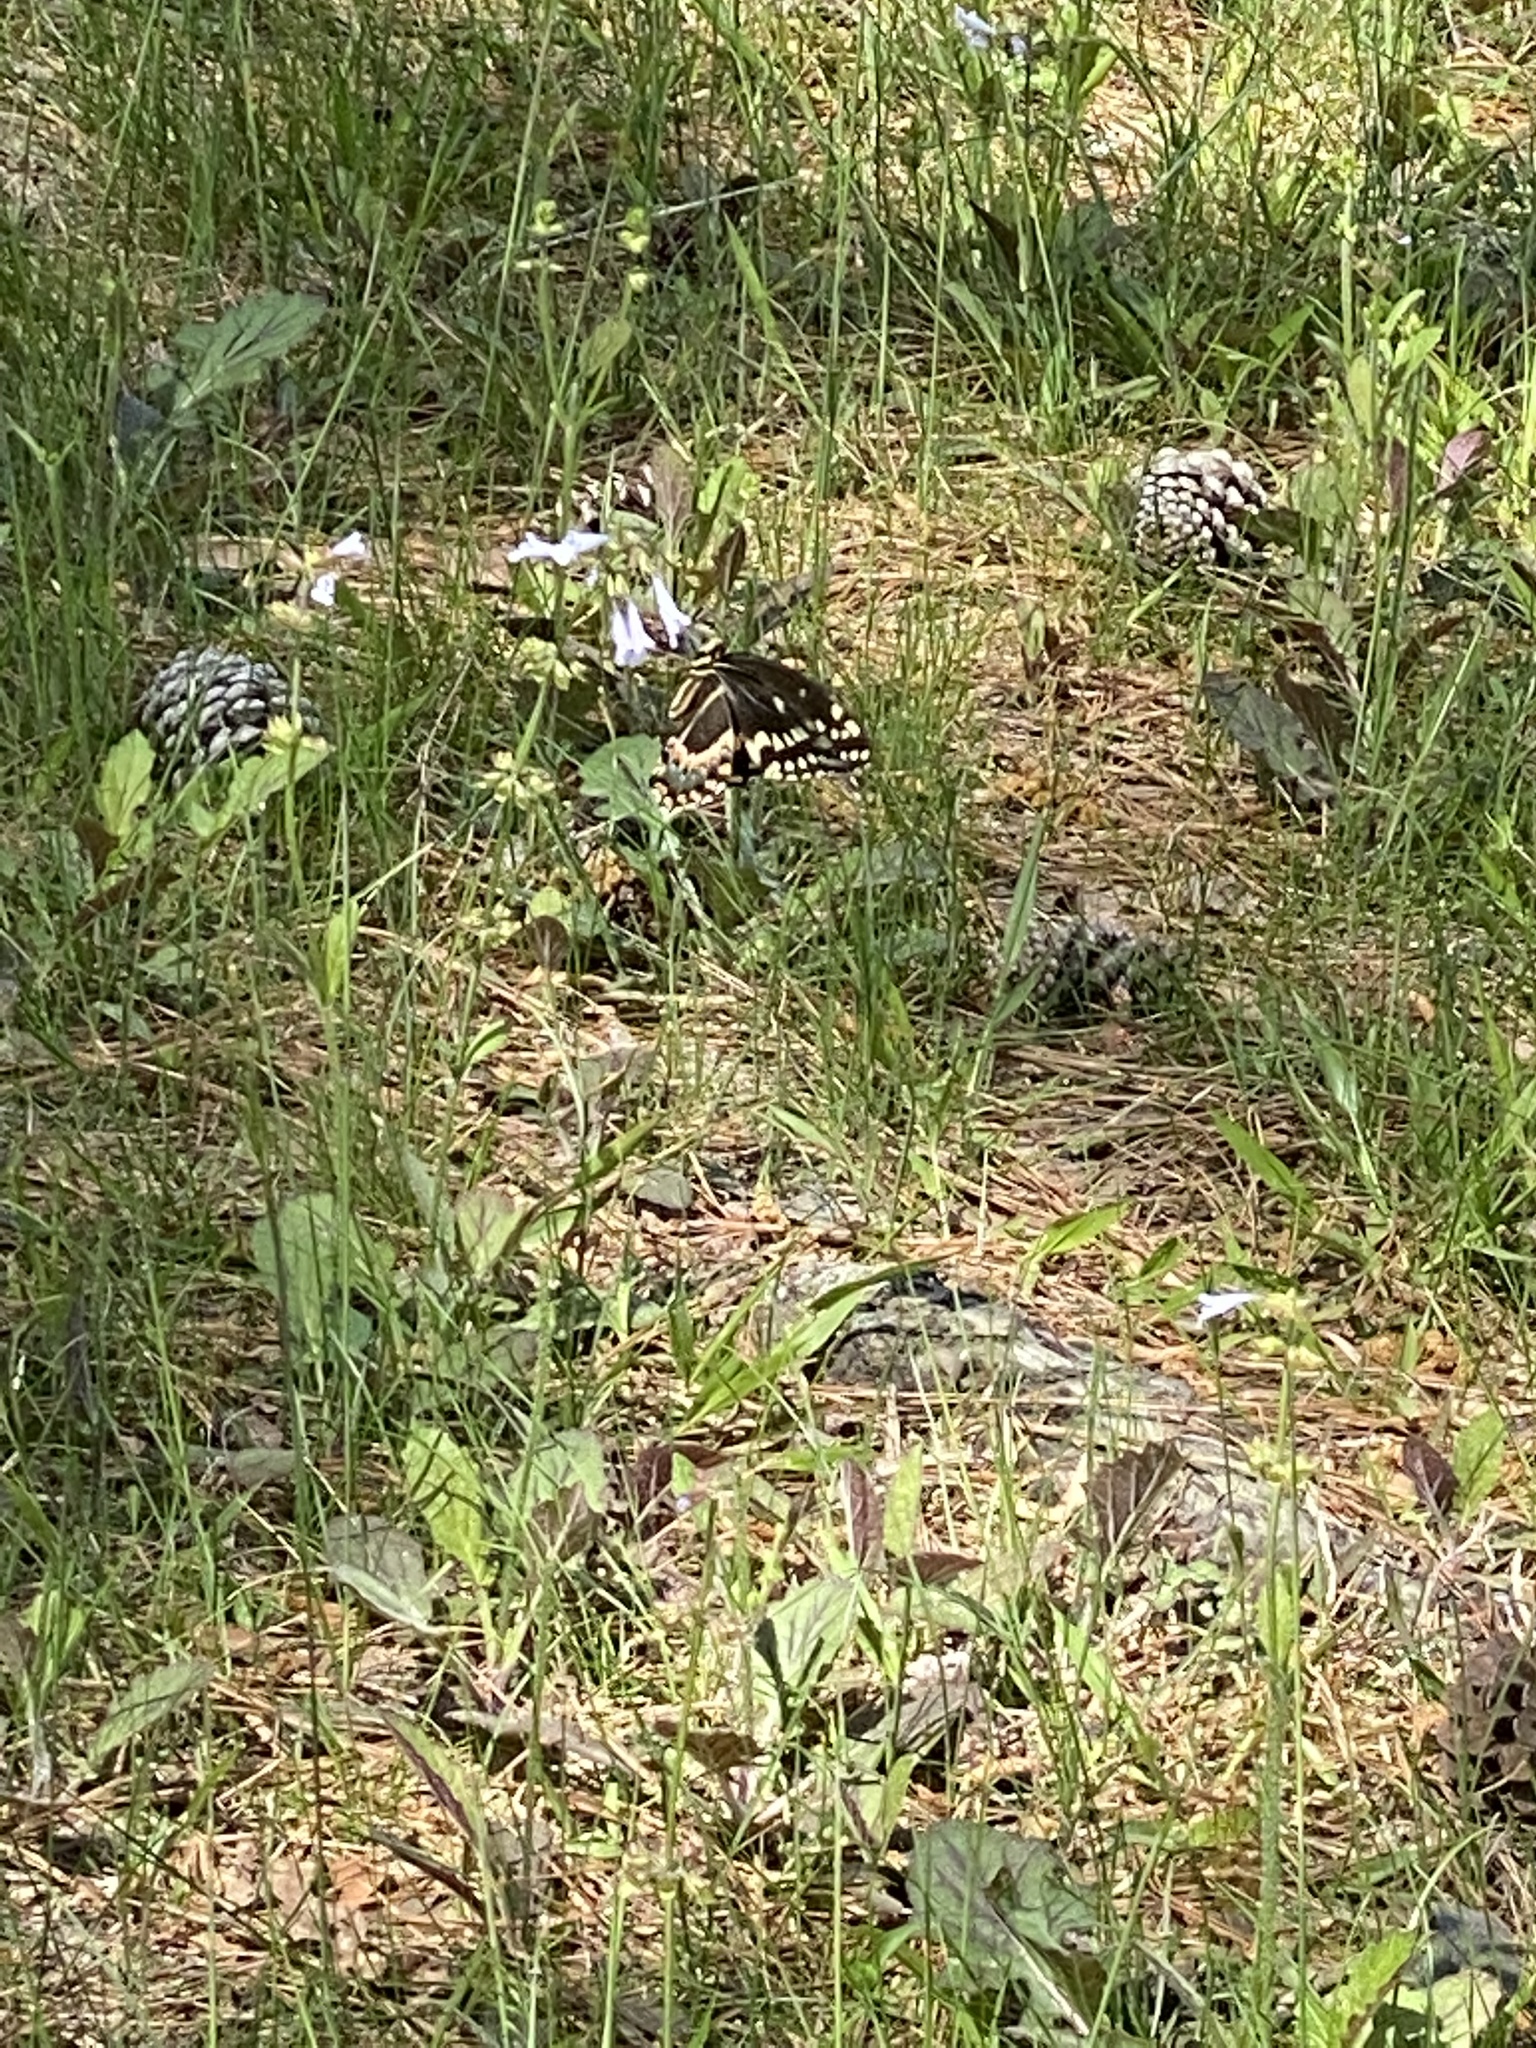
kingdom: Animalia
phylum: Arthropoda
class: Insecta
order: Lepidoptera
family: Papilionidae
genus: Papilio
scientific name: Papilio palamedes
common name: Palamedes swallowtail
